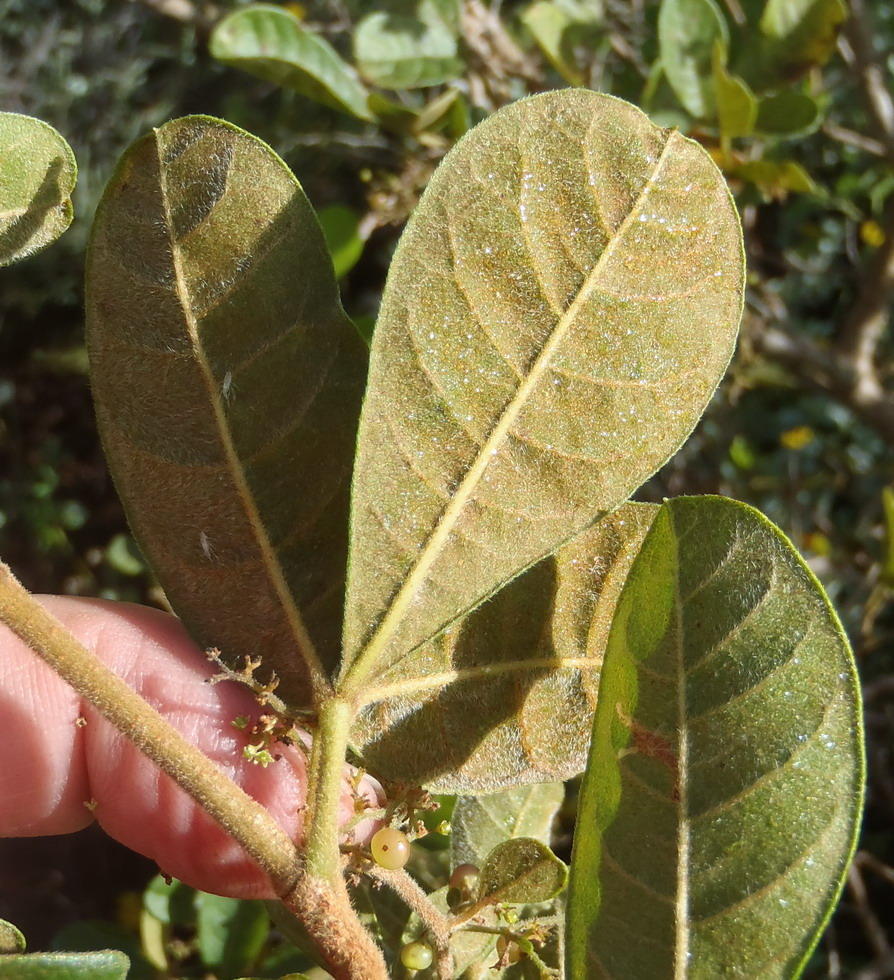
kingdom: Plantae
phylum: Tracheophyta
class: Magnoliopsida
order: Sapindales
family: Anacardiaceae
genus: Searsia
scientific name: Searsia pyroides
